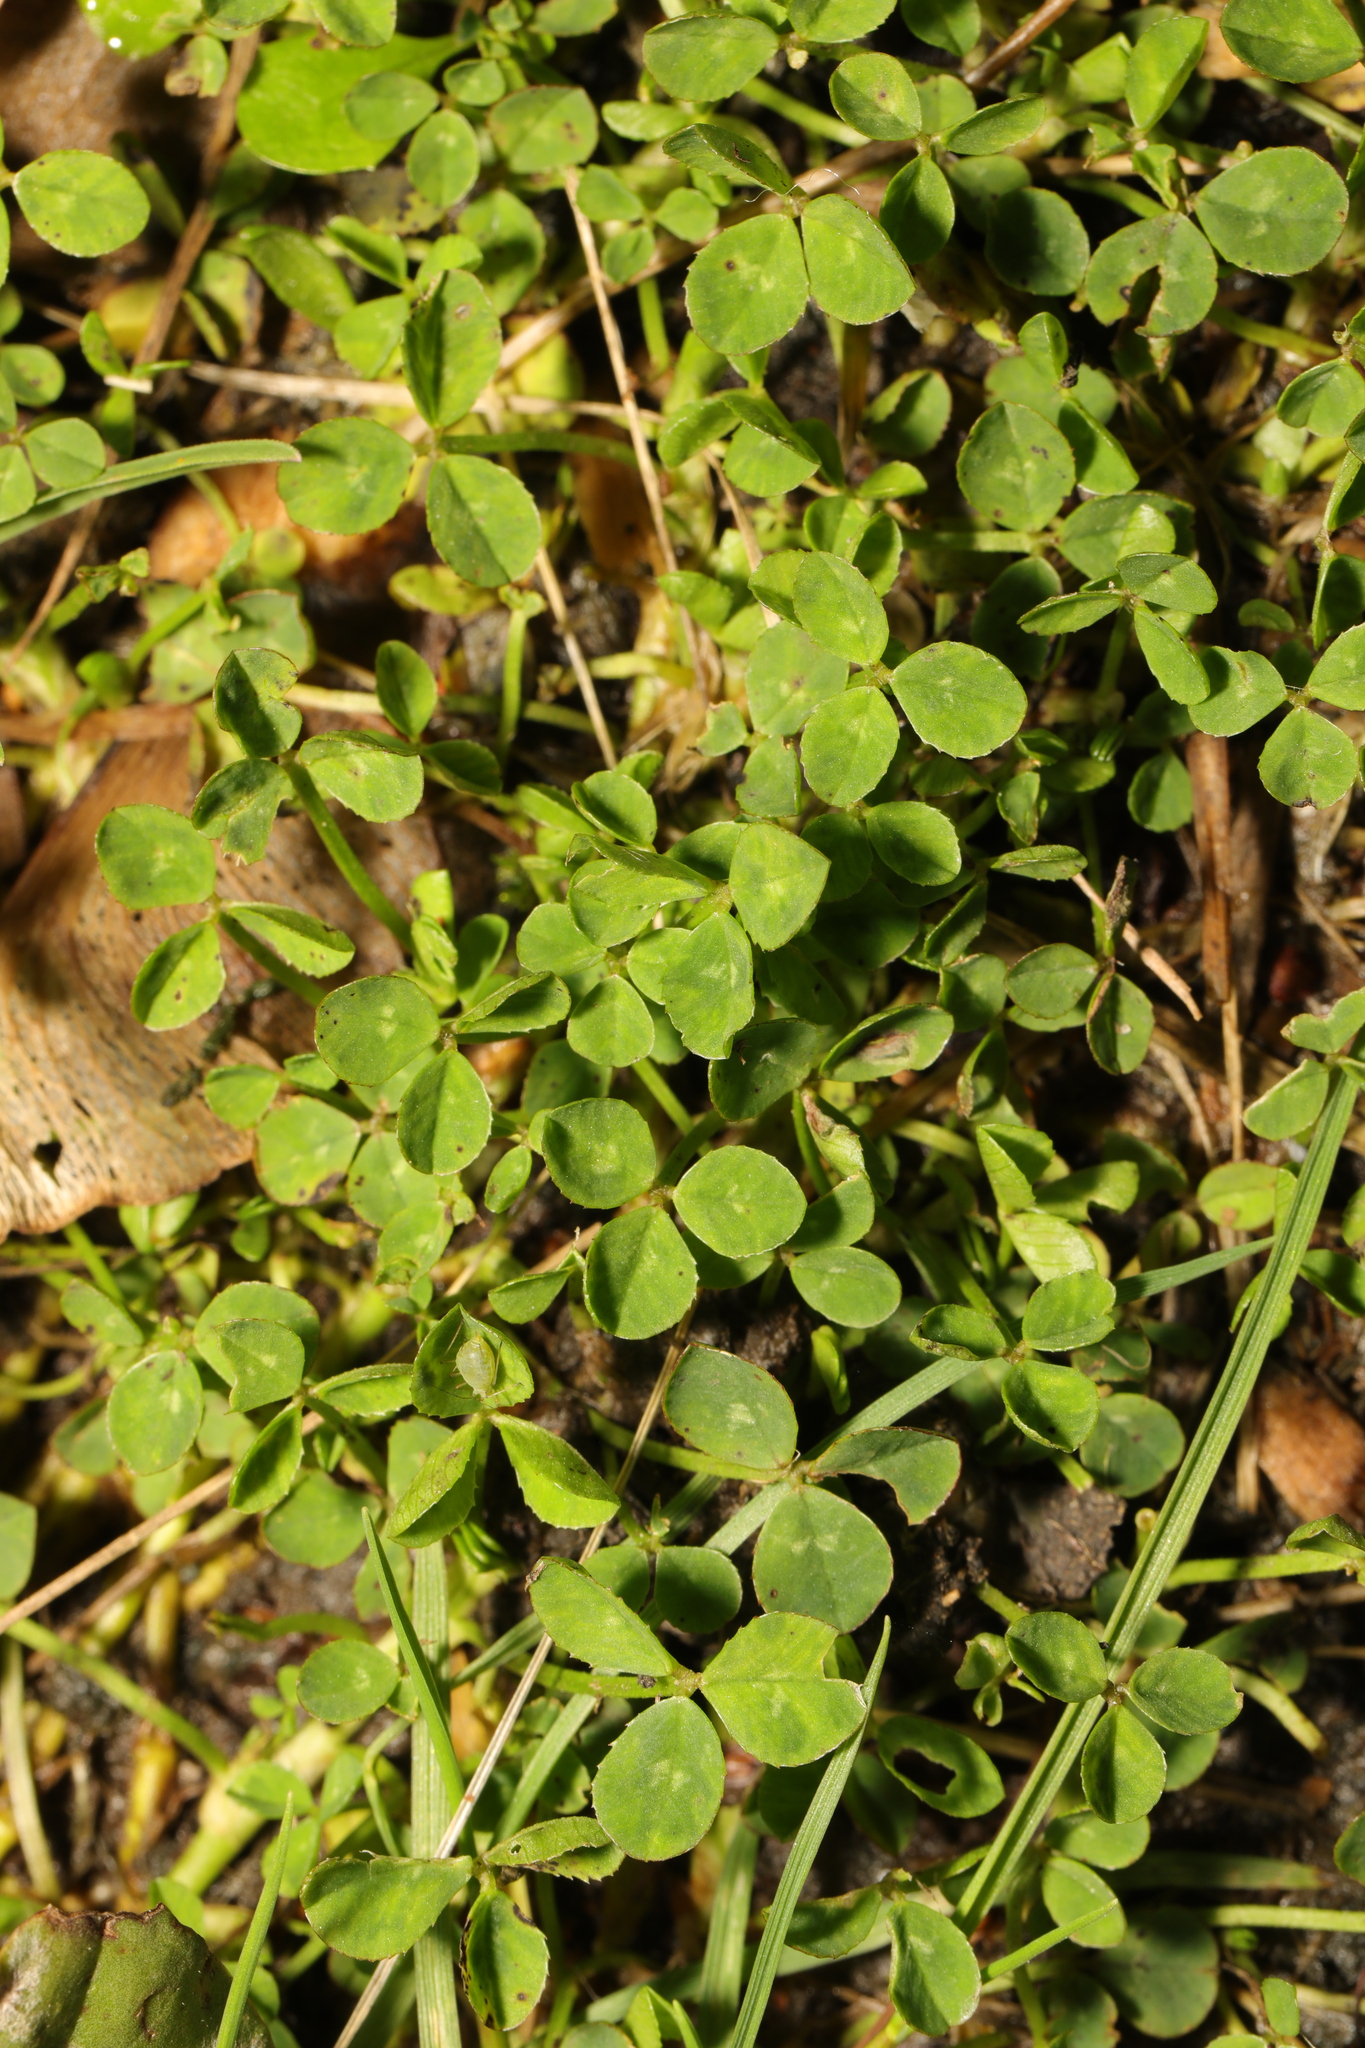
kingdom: Plantae
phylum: Tracheophyta
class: Magnoliopsida
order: Fabales
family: Fabaceae
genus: Trifolium
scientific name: Trifolium repens
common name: White clover
